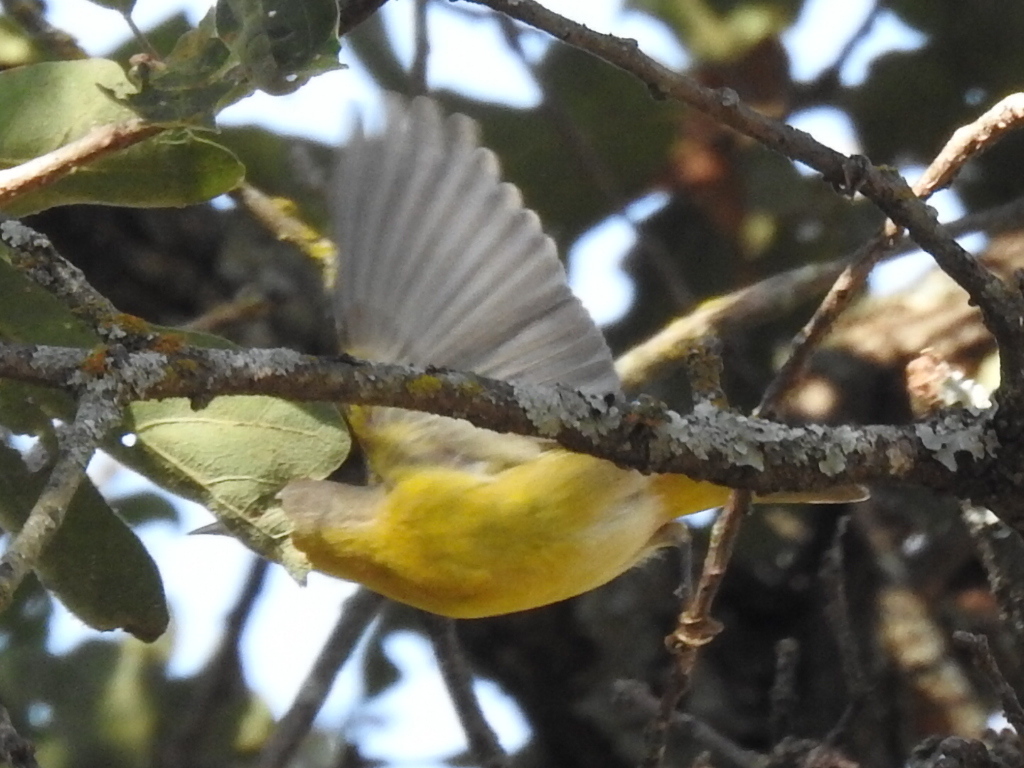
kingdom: Animalia
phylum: Chordata
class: Aves
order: Passeriformes
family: Parulidae
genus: Leiothlypis
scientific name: Leiothlypis ruficapilla
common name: Nashville warbler
